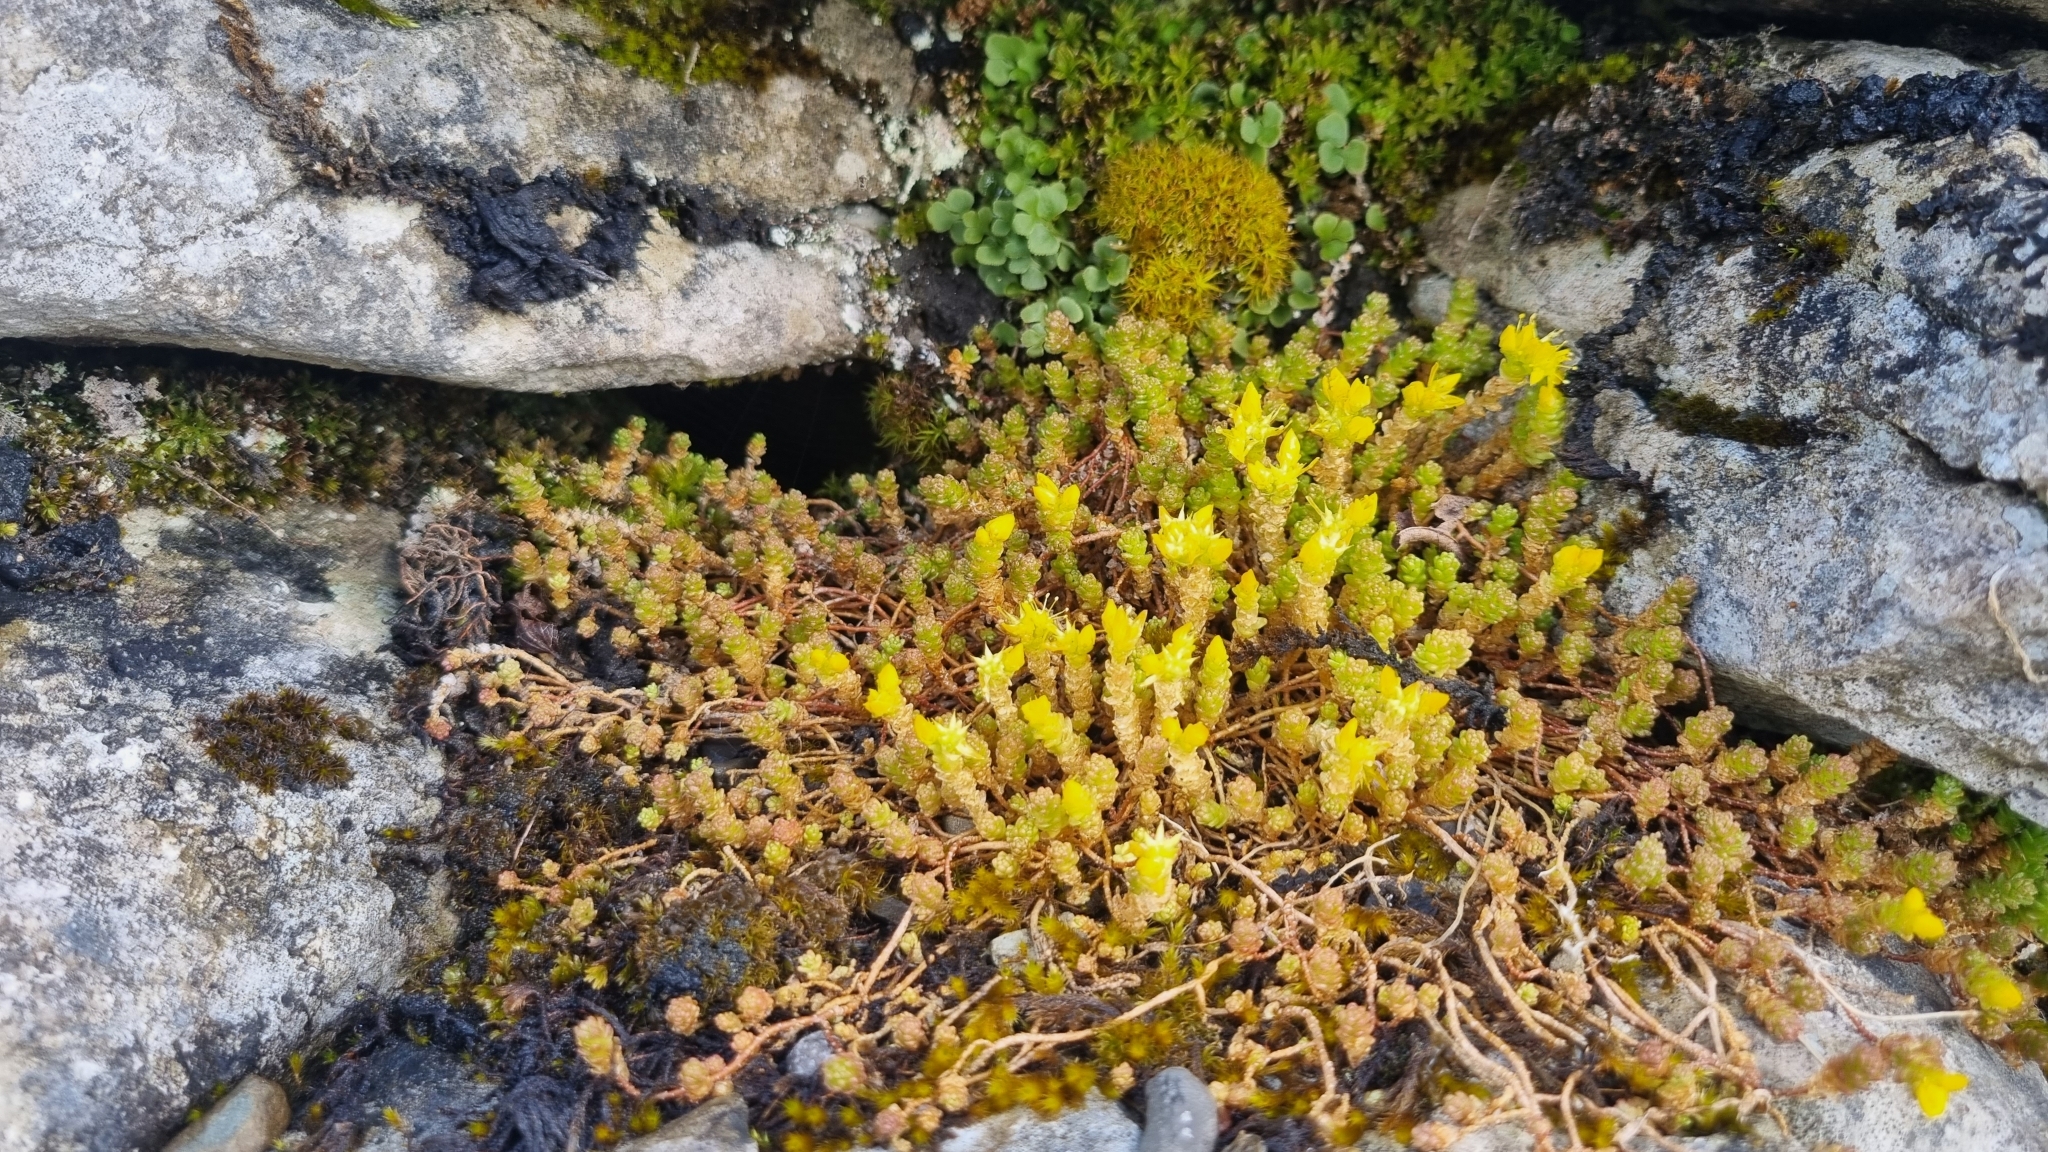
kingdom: Plantae
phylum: Tracheophyta
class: Magnoliopsida
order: Saxifragales
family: Crassulaceae
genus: Sedum
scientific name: Sedum acre
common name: Biting stonecrop
